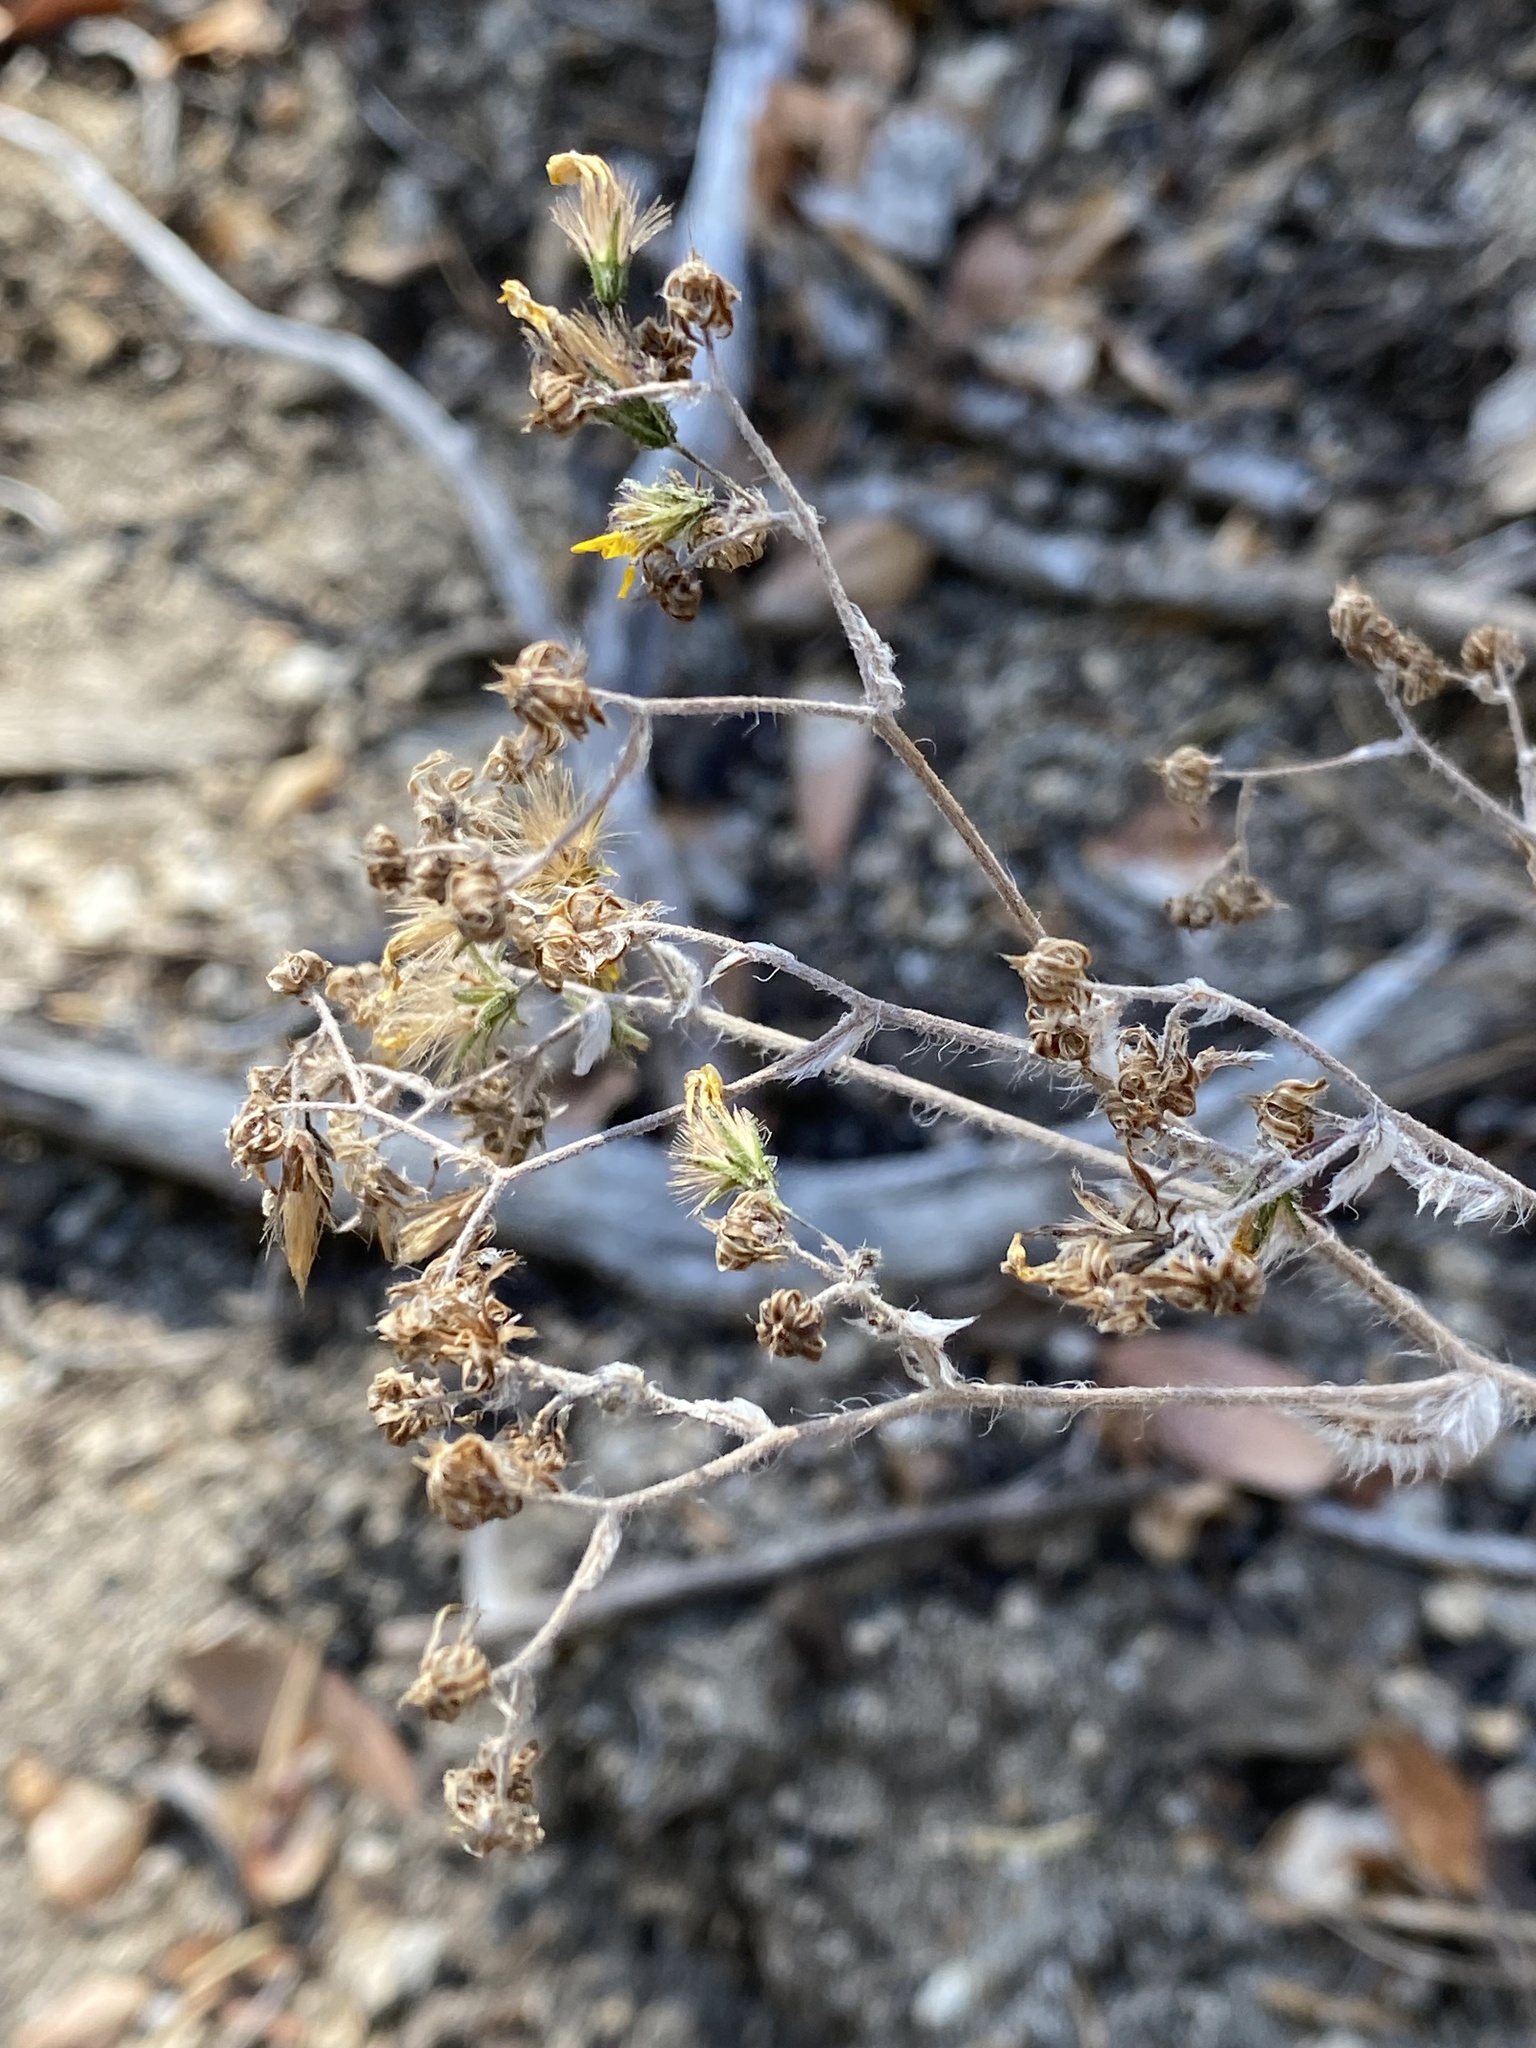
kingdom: Plantae
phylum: Tracheophyta
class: Magnoliopsida
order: Asterales
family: Asteraceae
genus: Hieracium
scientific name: Hieracium horridum
